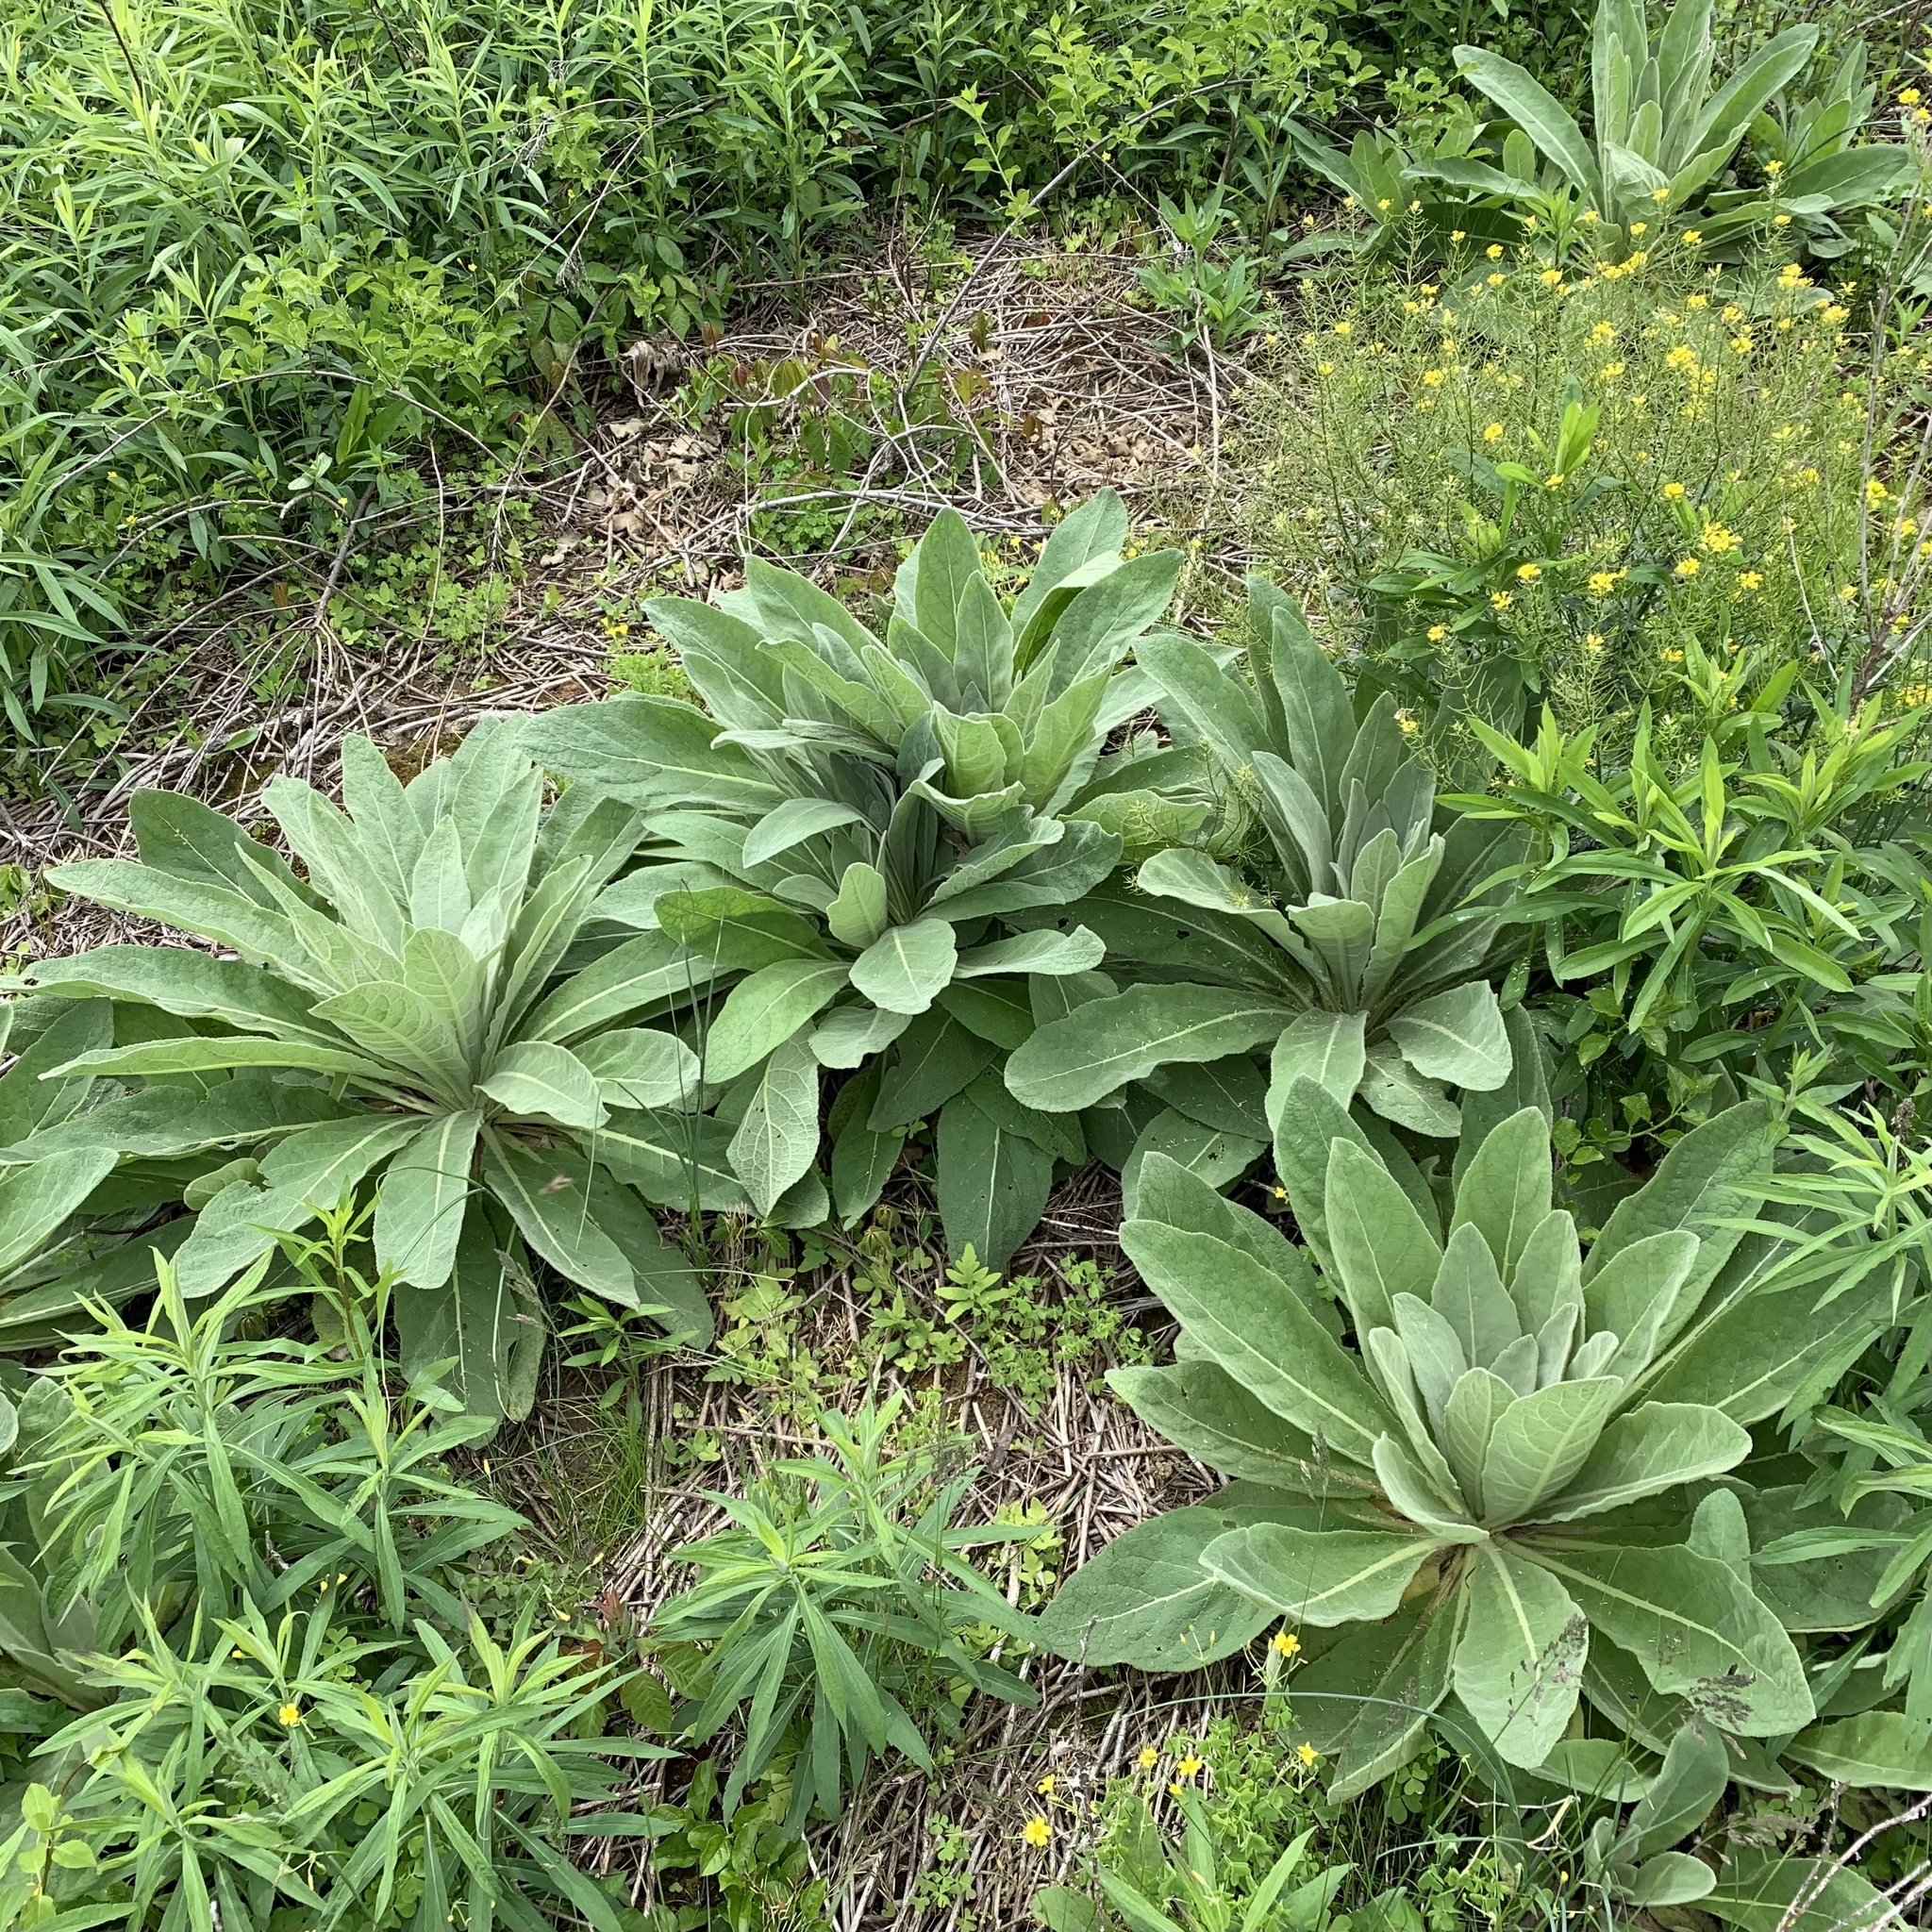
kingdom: Plantae
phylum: Tracheophyta
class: Magnoliopsida
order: Lamiales
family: Scrophulariaceae
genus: Verbascum
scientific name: Verbascum thapsus
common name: Common mullein
